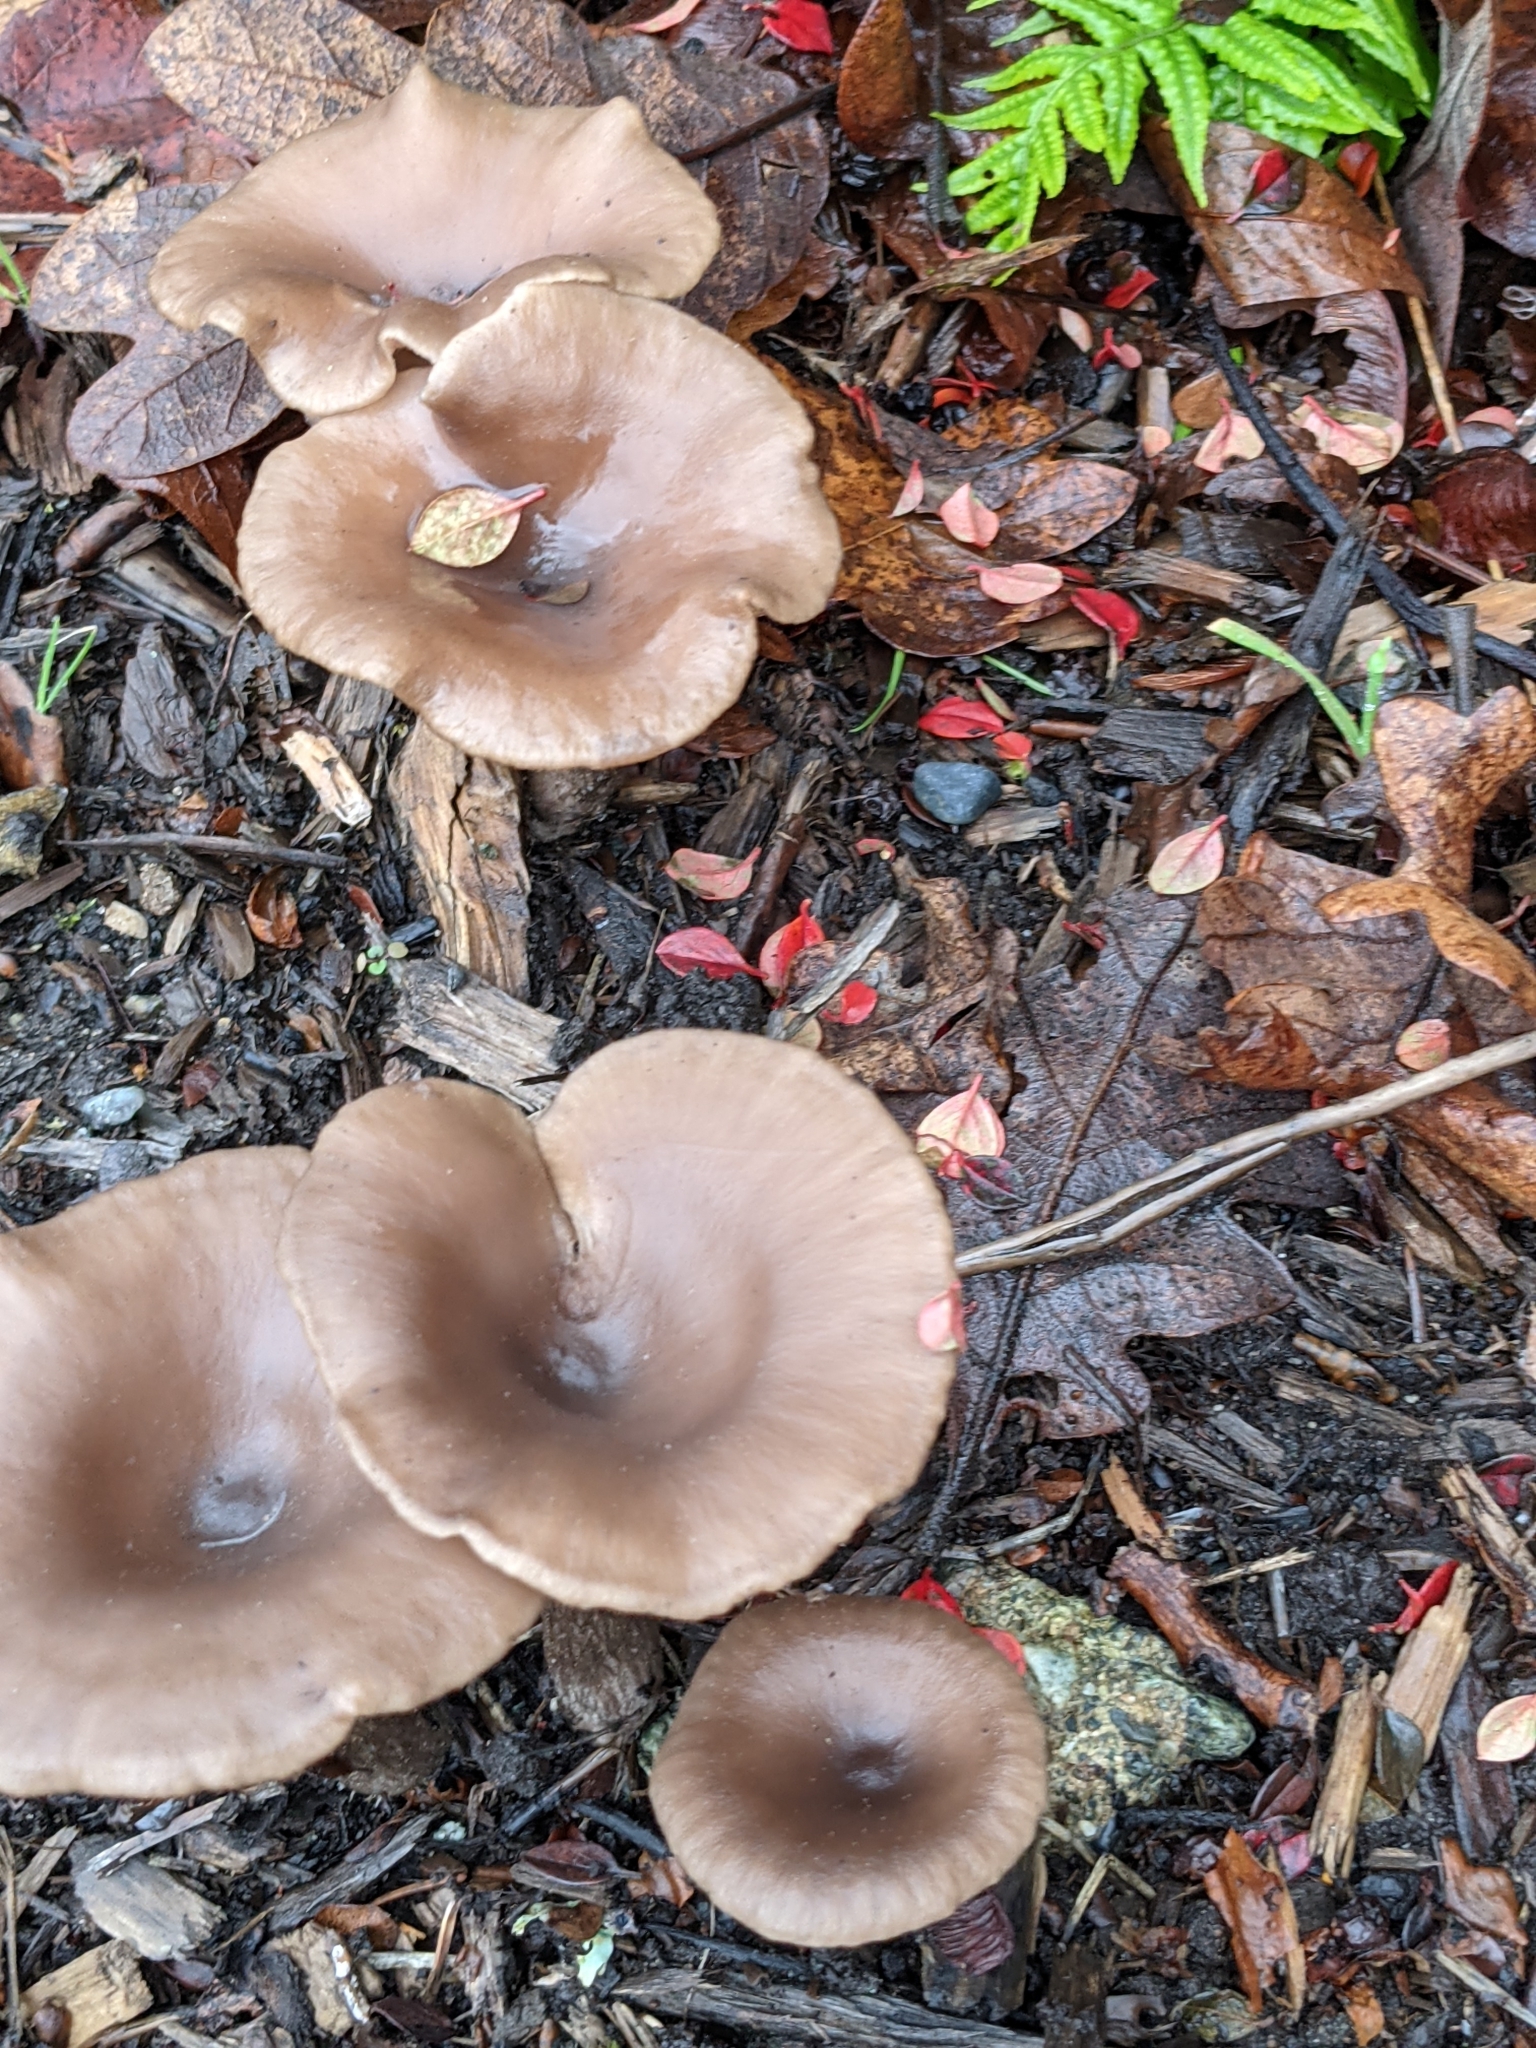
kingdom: Fungi
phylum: Basidiomycota
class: Agaricomycetes
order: Agaricales
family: Pseudoclitocybaceae
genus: Pseudoclitocybe
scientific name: Pseudoclitocybe cyathiformis
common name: Goblet
